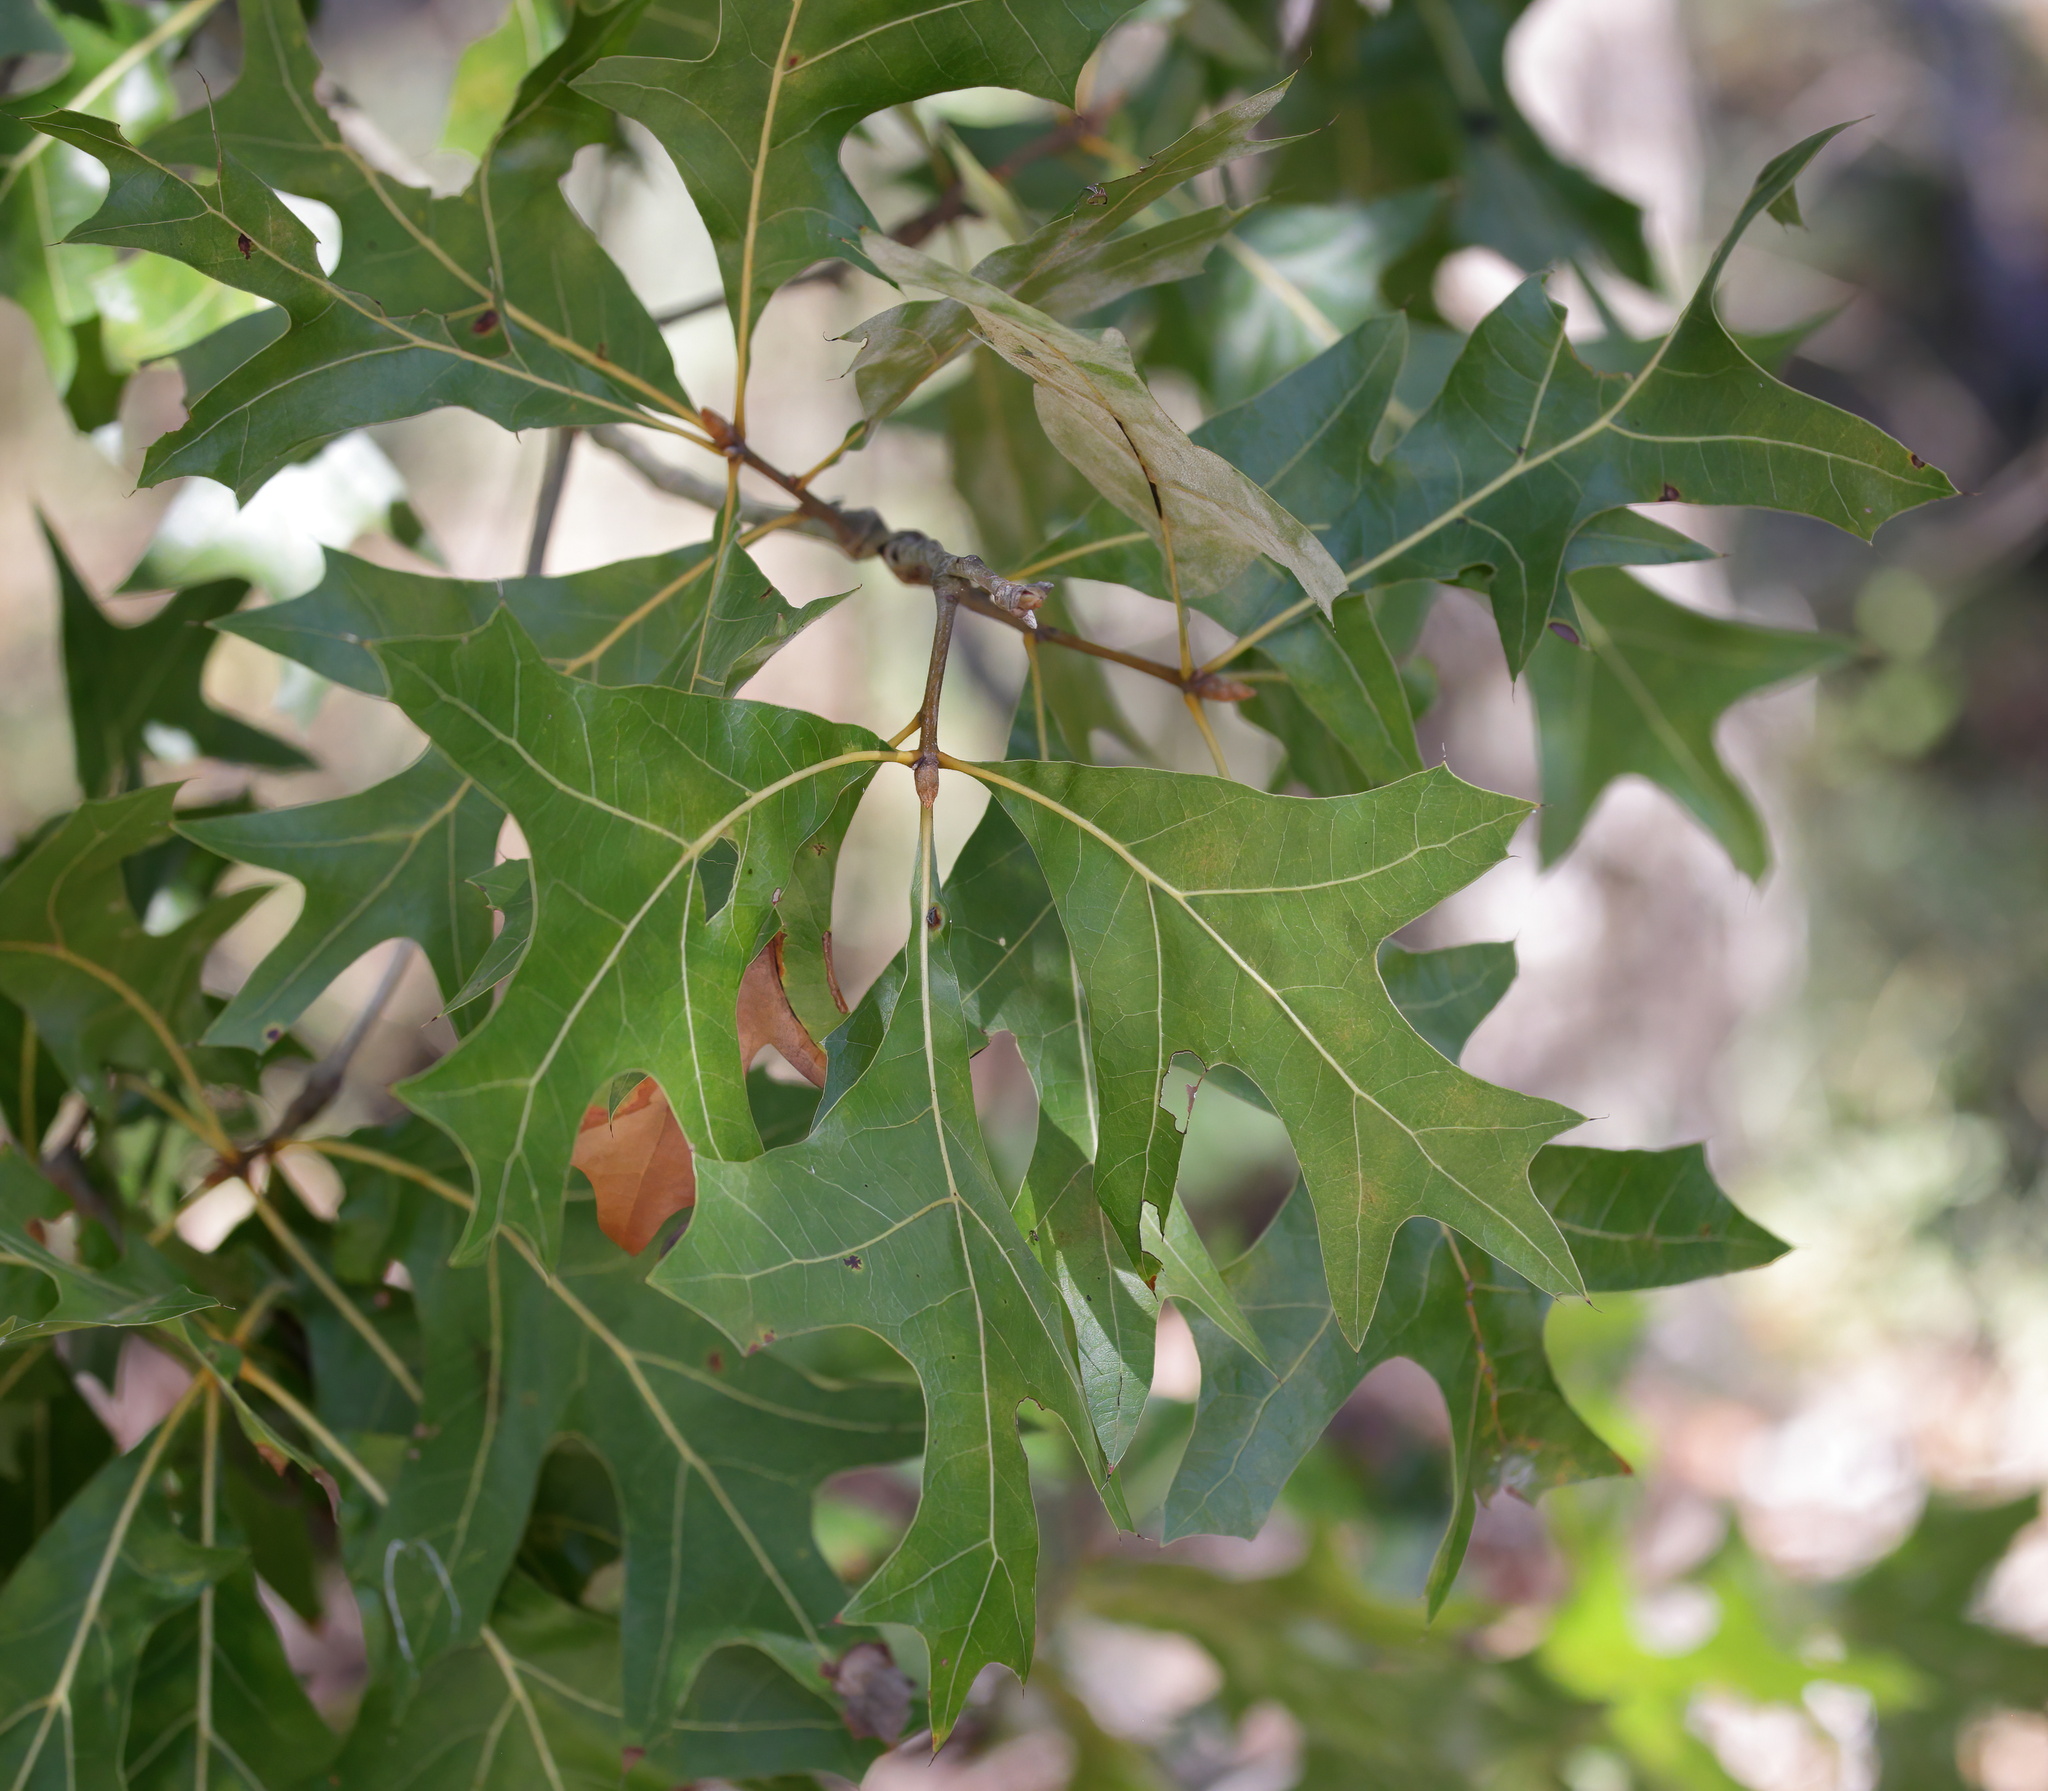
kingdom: Plantae
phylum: Tracheophyta
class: Magnoliopsida
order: Fagales
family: Fagaceae
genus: Quercus
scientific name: Quercus laevis
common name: Turkey oak
